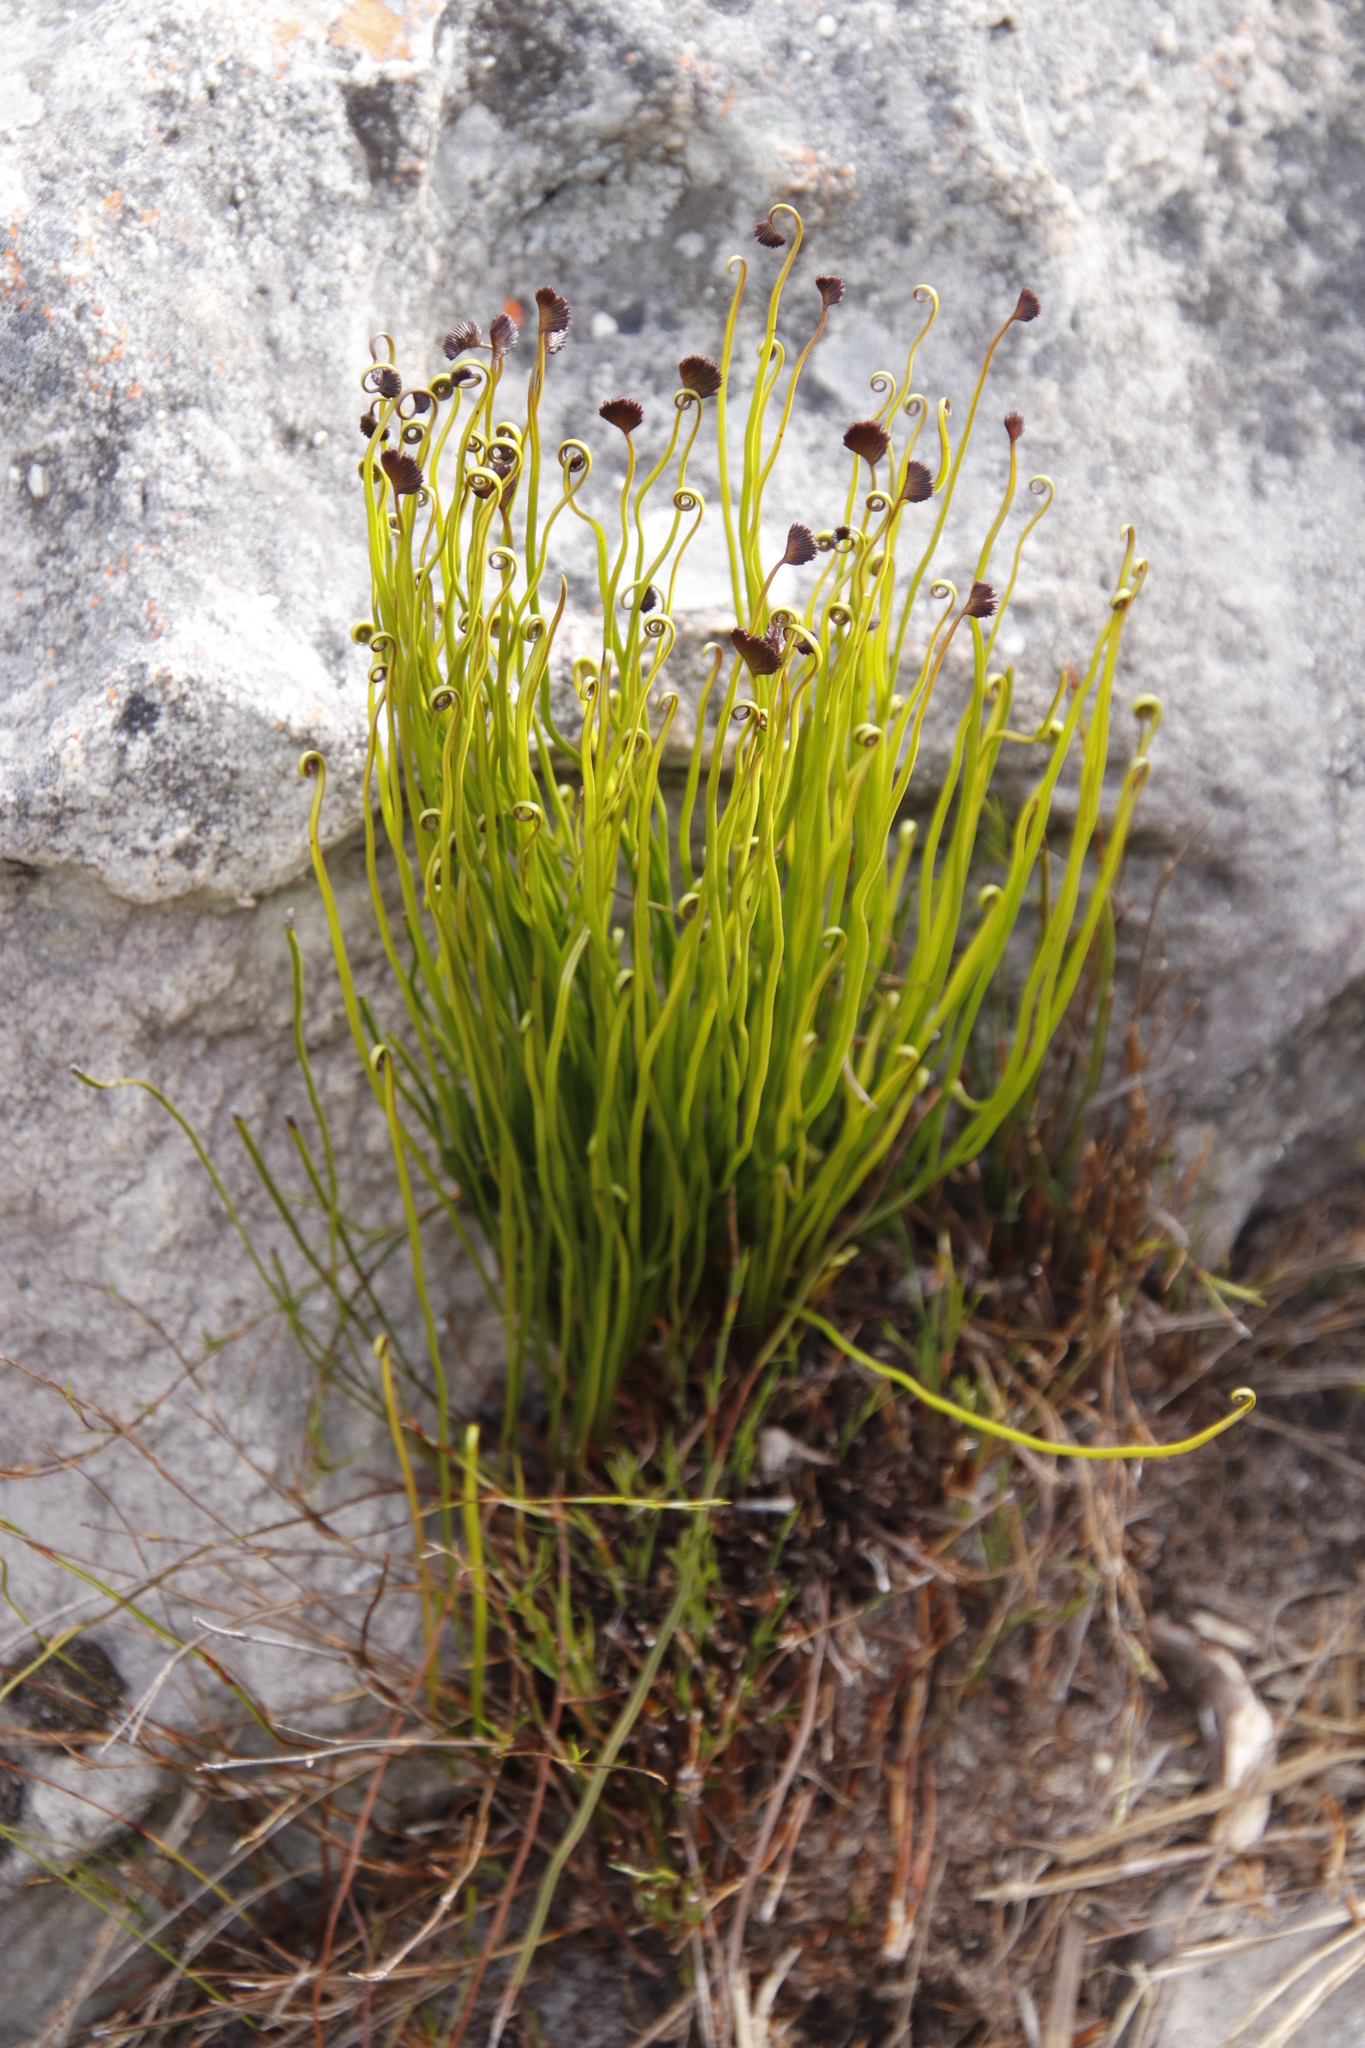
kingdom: Plantae
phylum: Tracheophyta
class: Polypodiopsida
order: Schizaeales
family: Schizaeaceae
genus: Schizaea
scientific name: Schizaea pectinata
